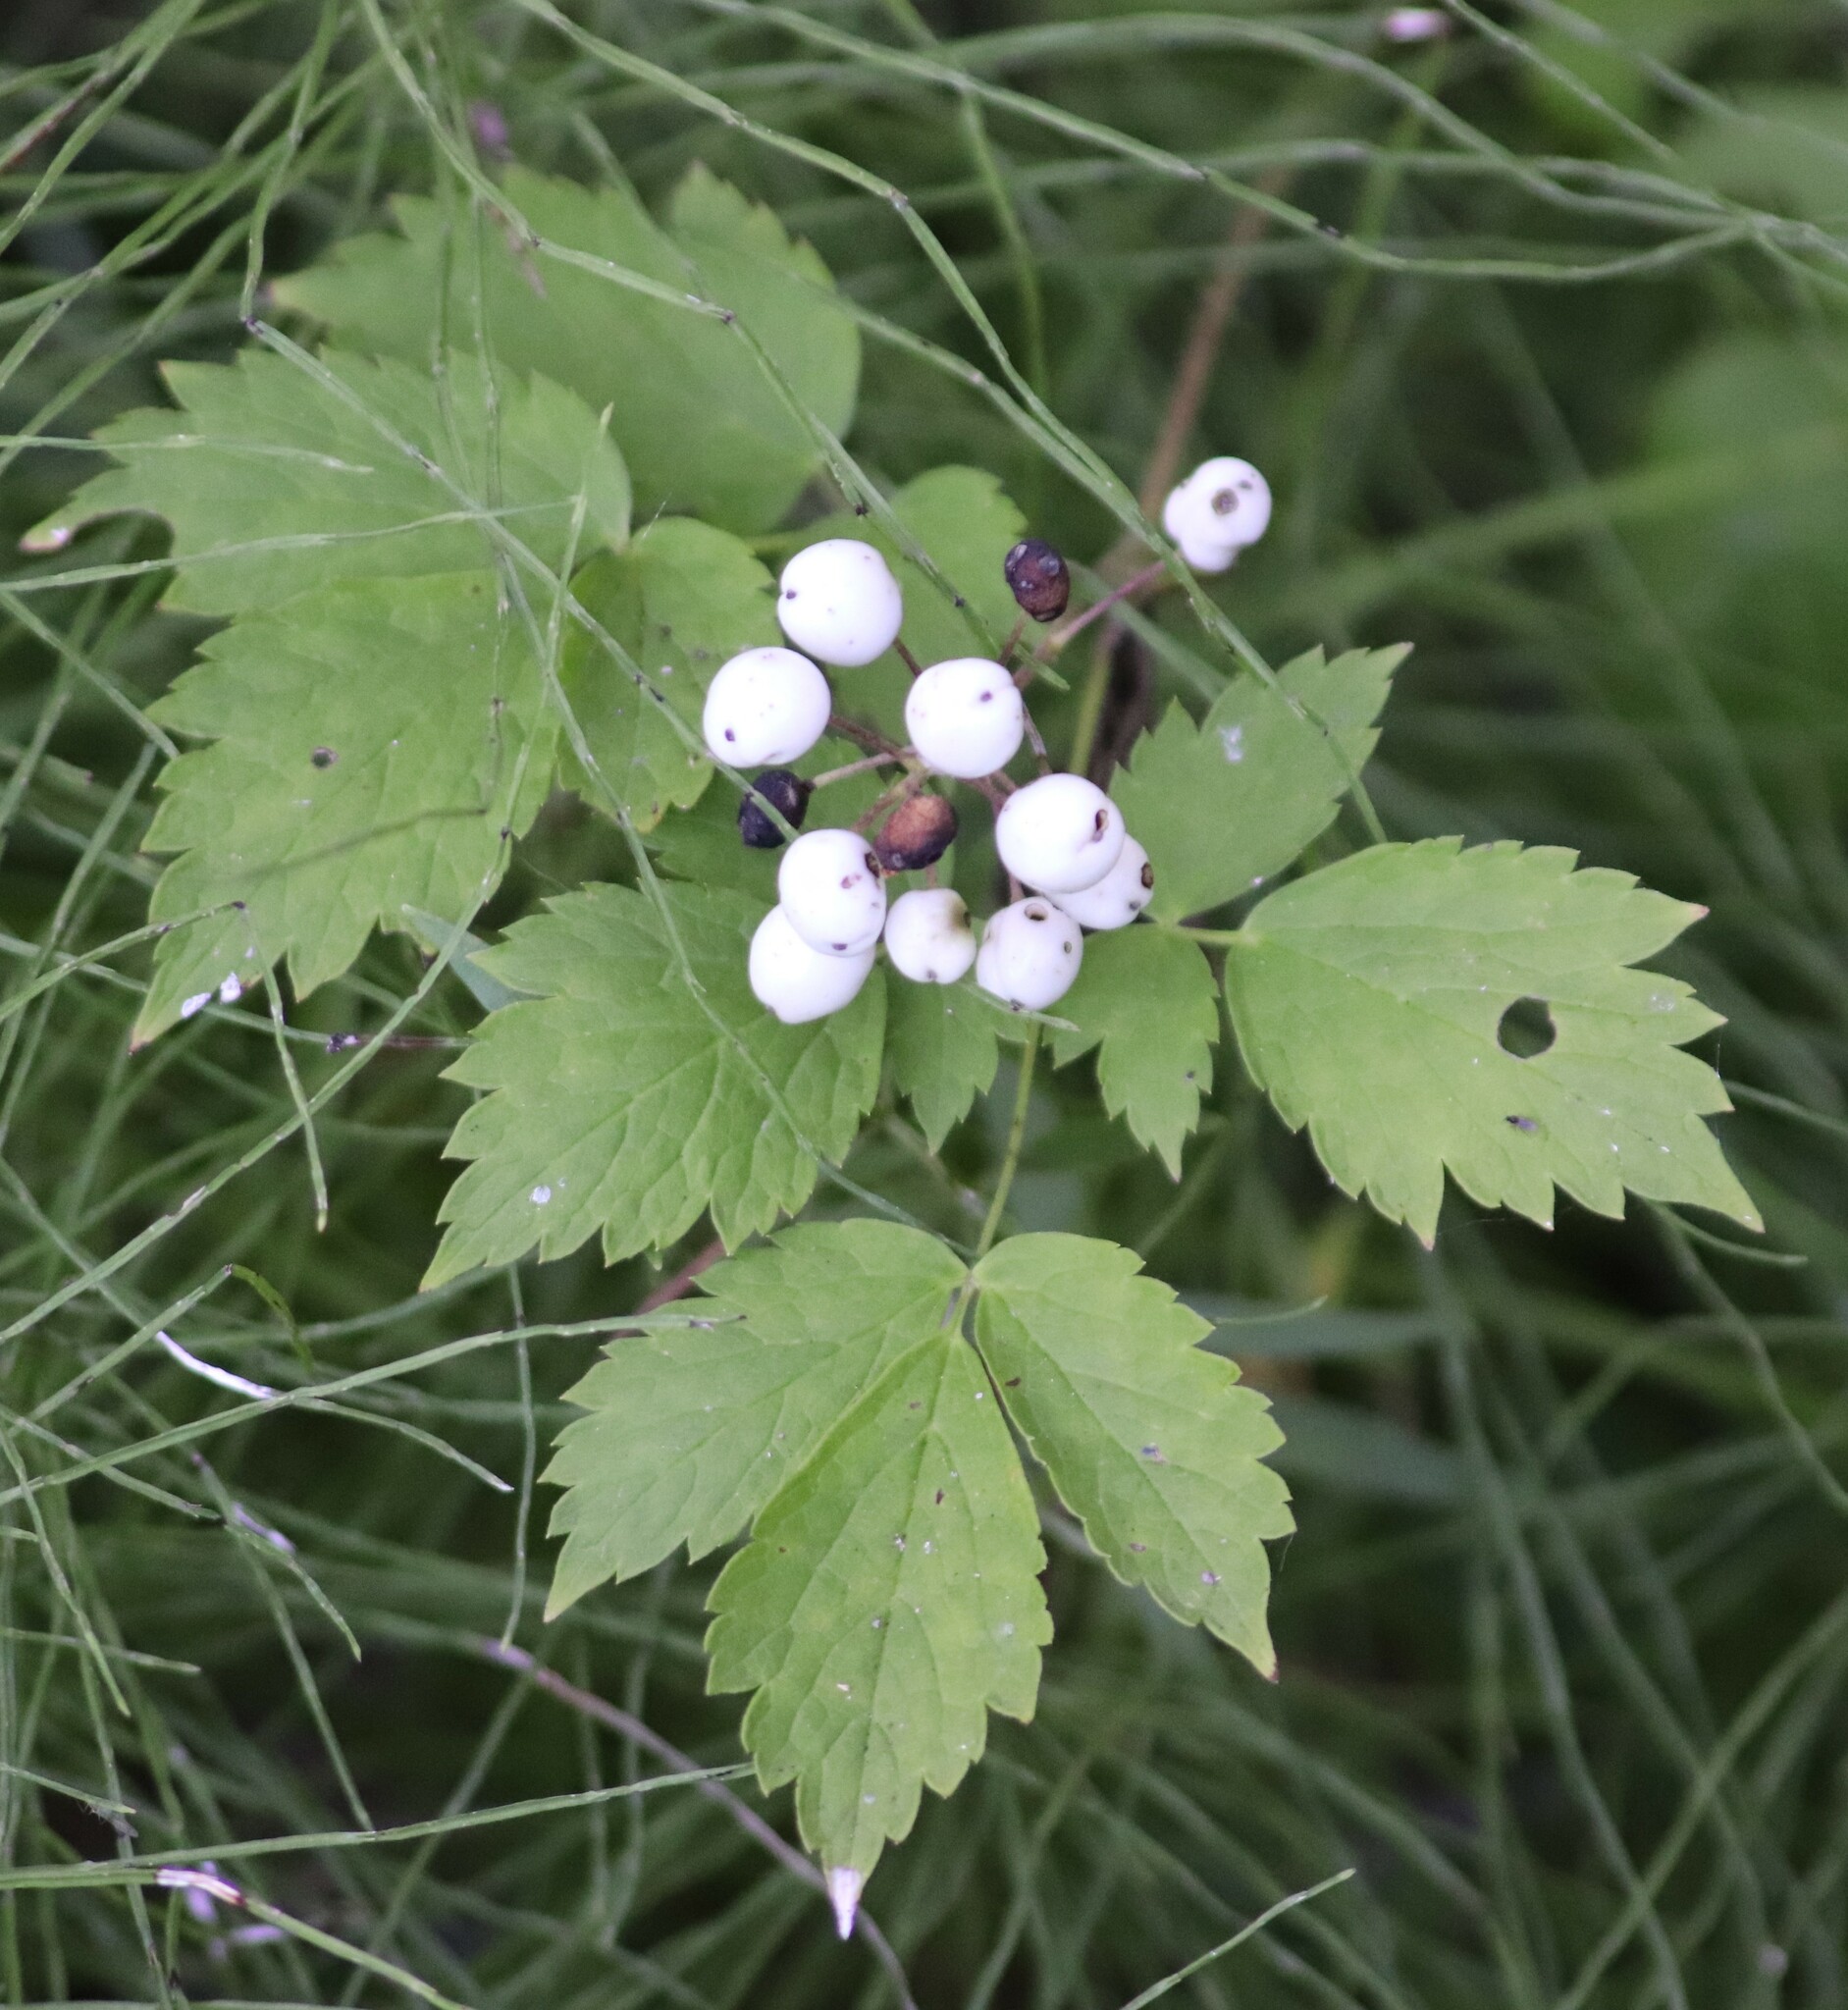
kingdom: Plantae
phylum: Tracheophyta
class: Magnoliopsida
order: Ranunculales
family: Ranunculaceae
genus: Actaea
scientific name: Actaea rubra
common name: Red baneberry
